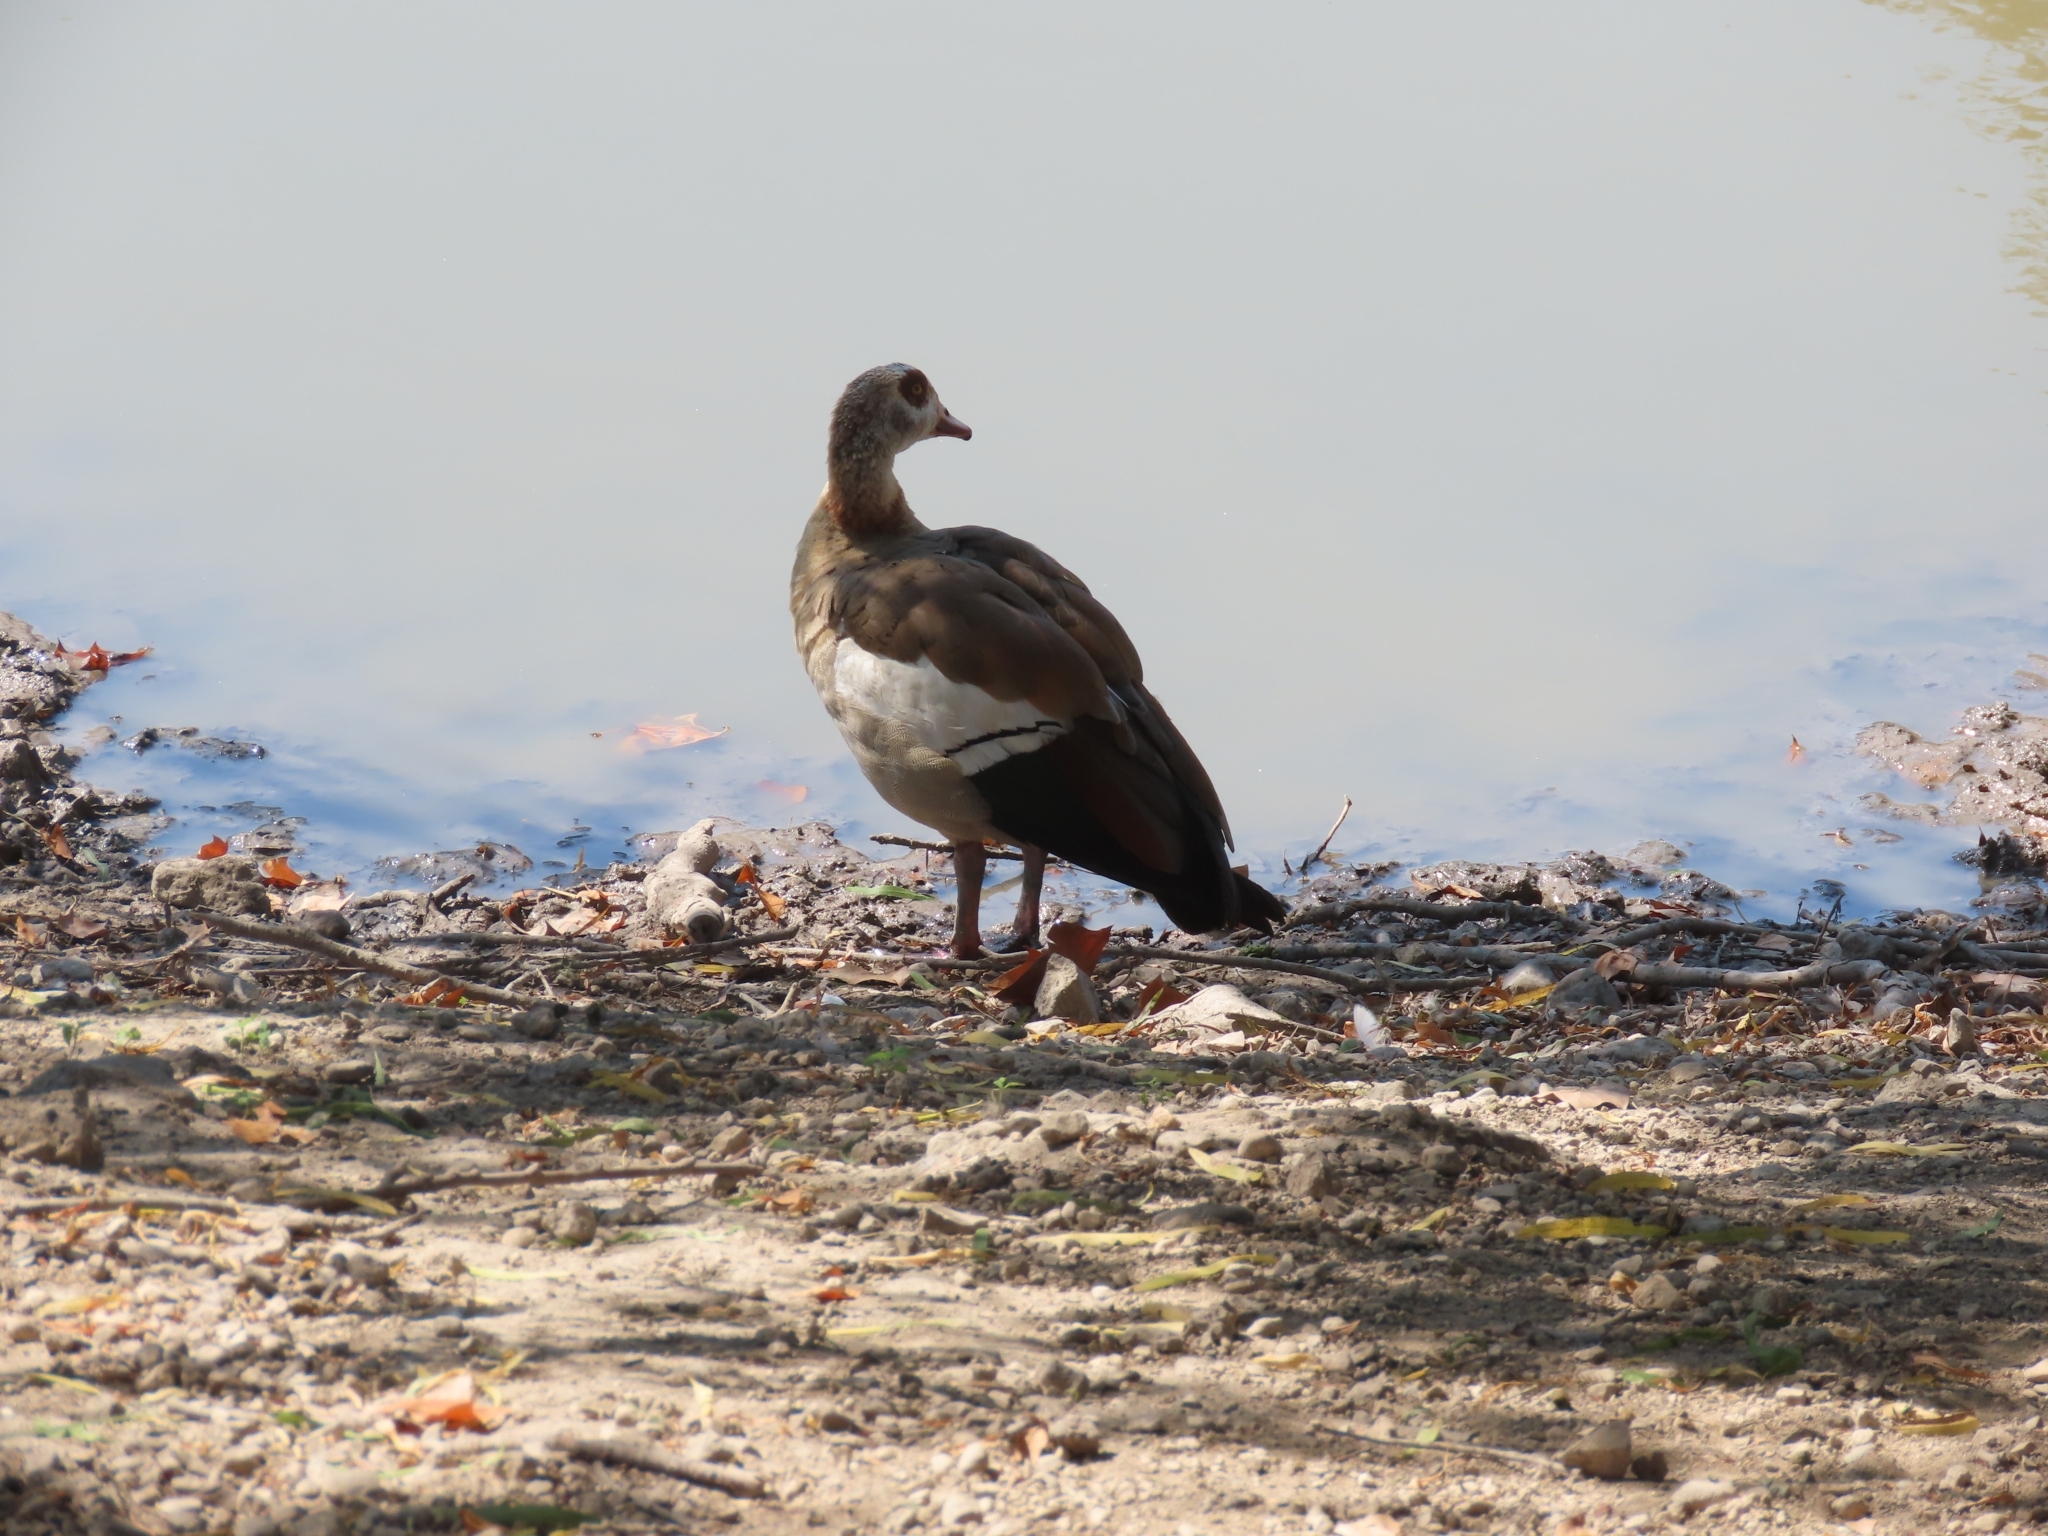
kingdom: Animalia
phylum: Chordata
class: Aves
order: Anseriformes
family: Anatidae
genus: Alopochen
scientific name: Alopochen aegyptiaca
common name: Egyptian goose
